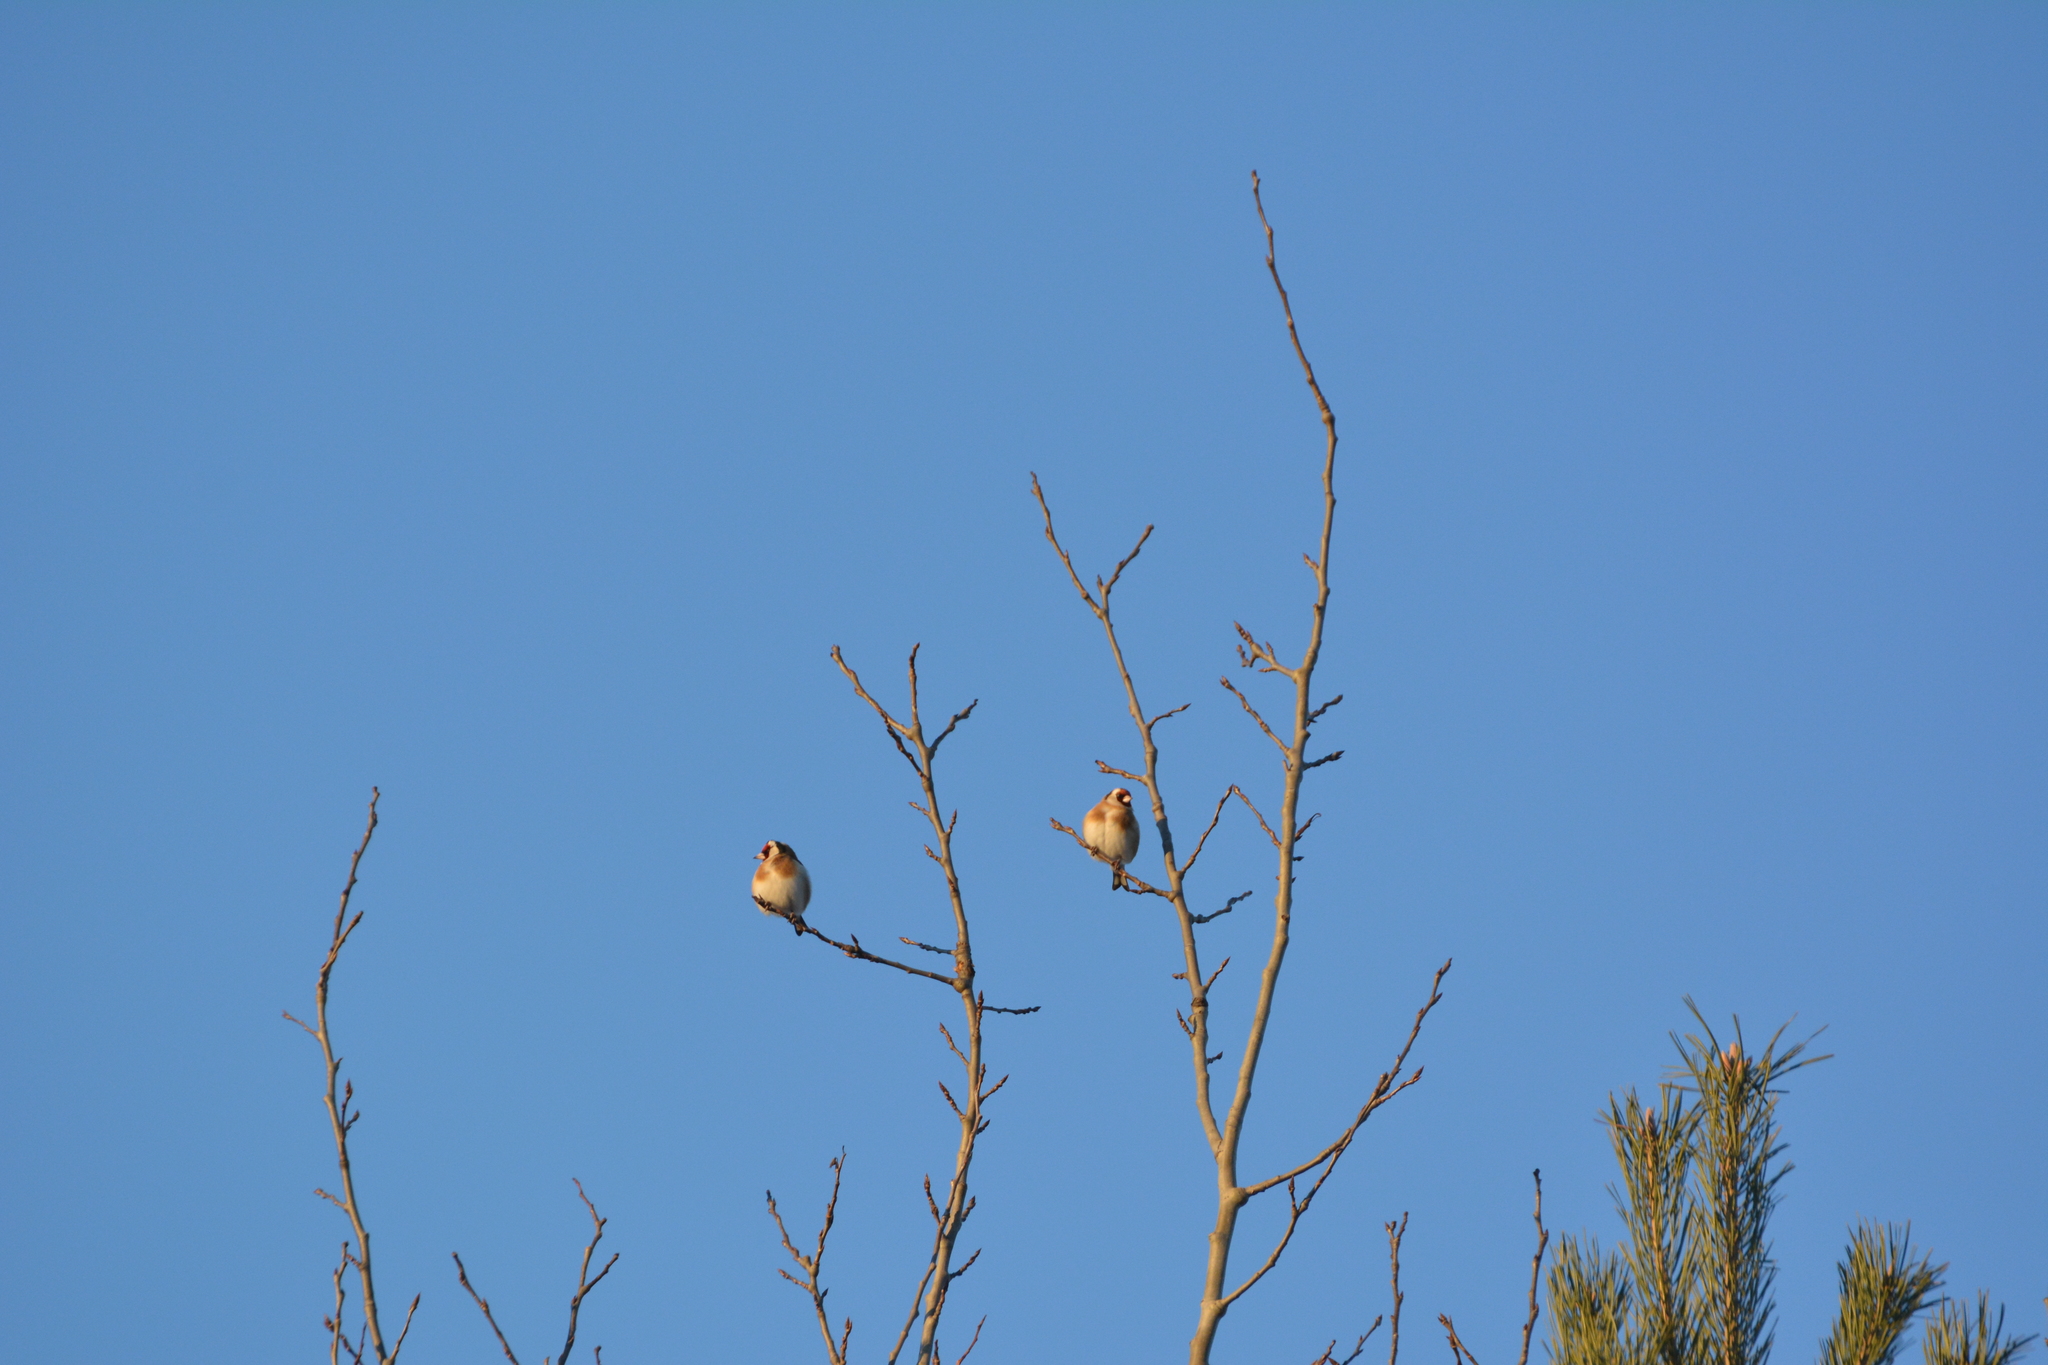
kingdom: Animalia
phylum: Chordata
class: Aves
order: Passeriformes
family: Fringillidae
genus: Carduelis
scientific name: Carduelis carduelis
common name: European goldfinch
